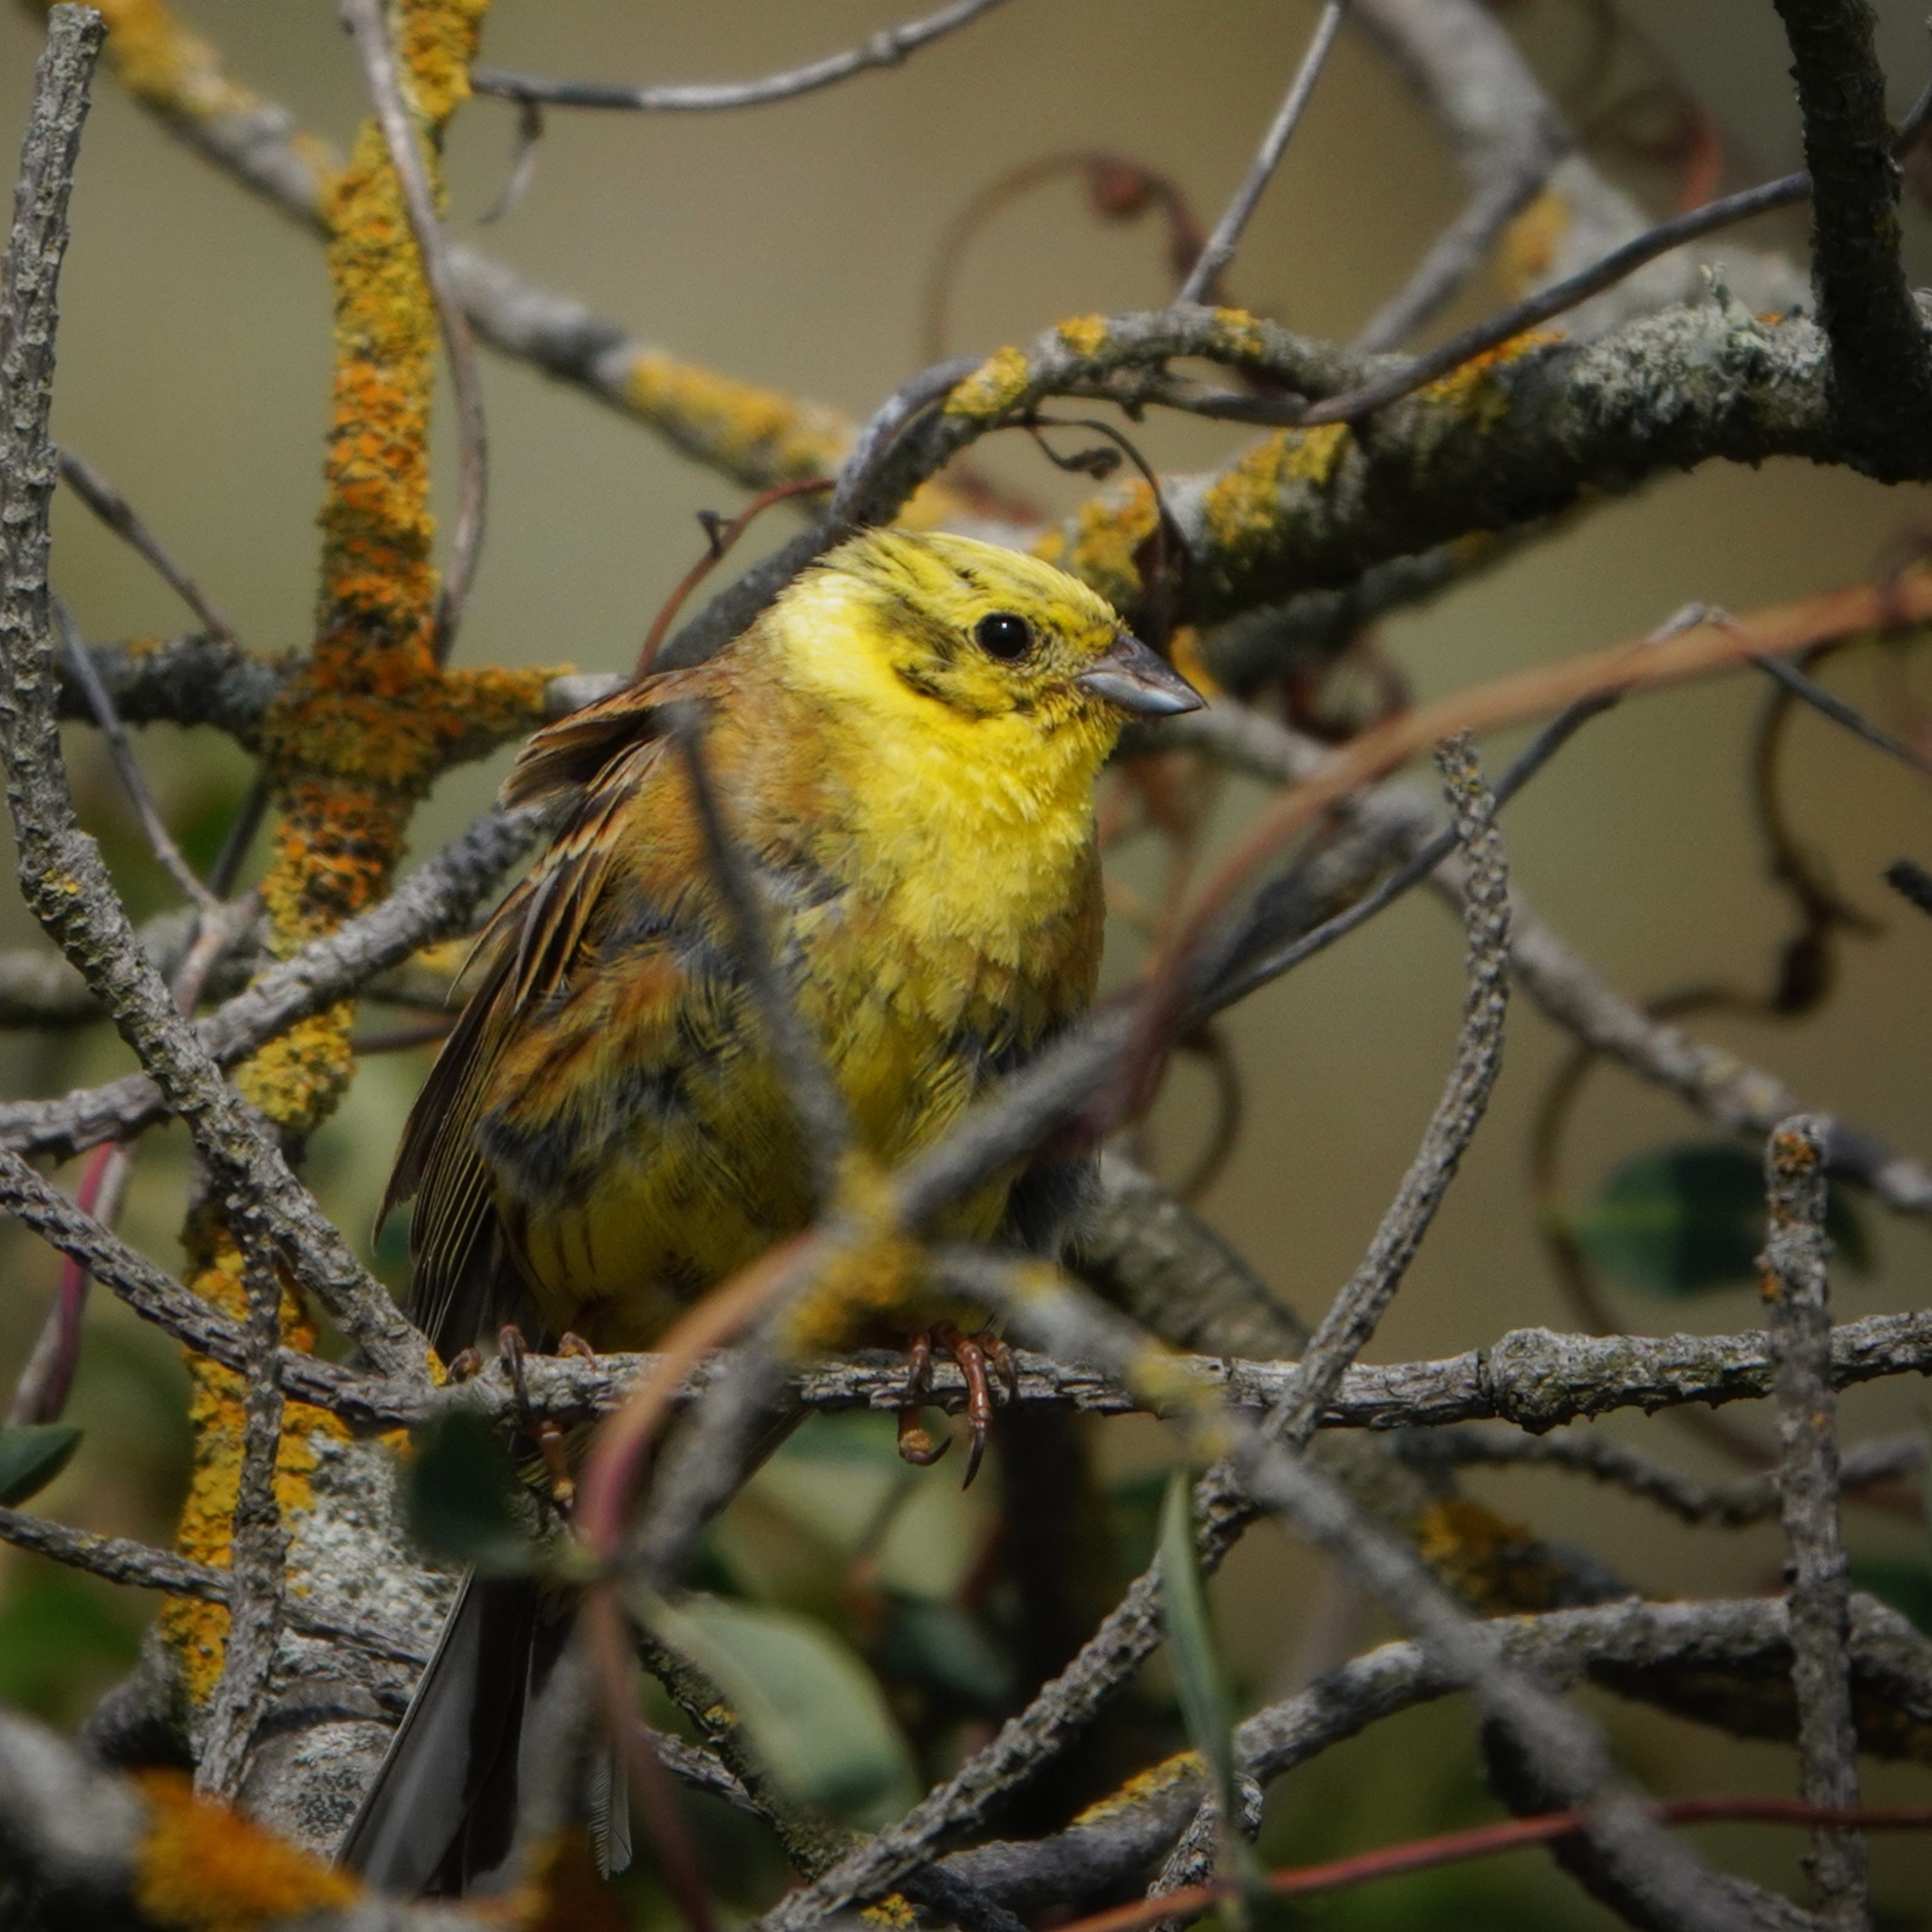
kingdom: Animalia
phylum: Chordata
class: Aves
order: Passeriformes
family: Emberizidae
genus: Emberiza
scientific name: Emberiza citrinella
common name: Yellowhammer
